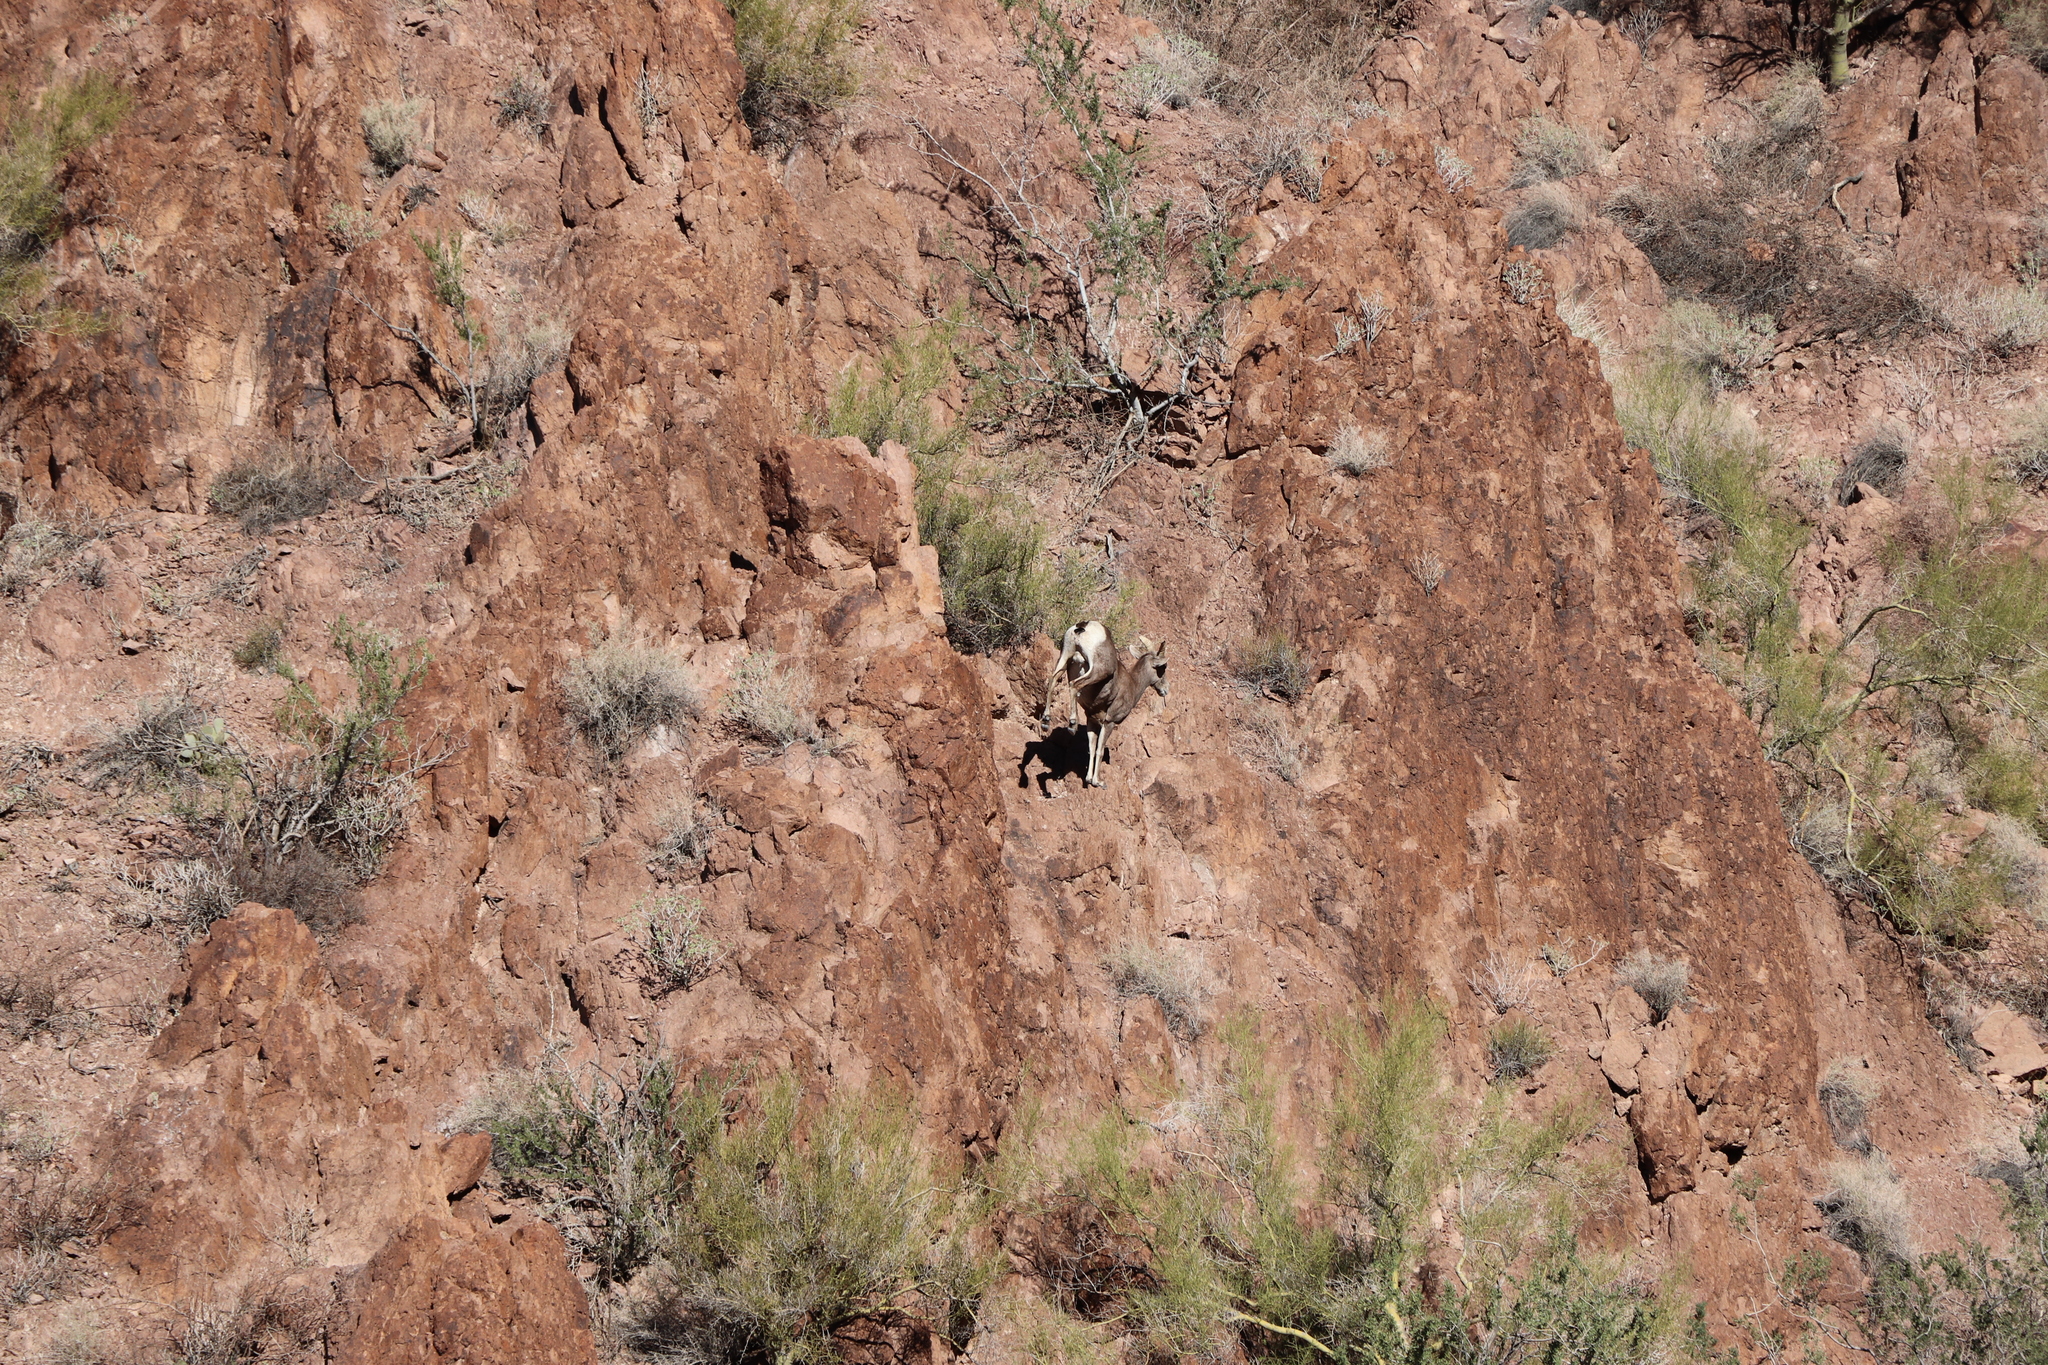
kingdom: Animalia
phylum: Chordata
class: Mammalia
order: Artiodactyla
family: Bovidae
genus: Ovis
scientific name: Ovis canadensis
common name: Bighorn sheep
